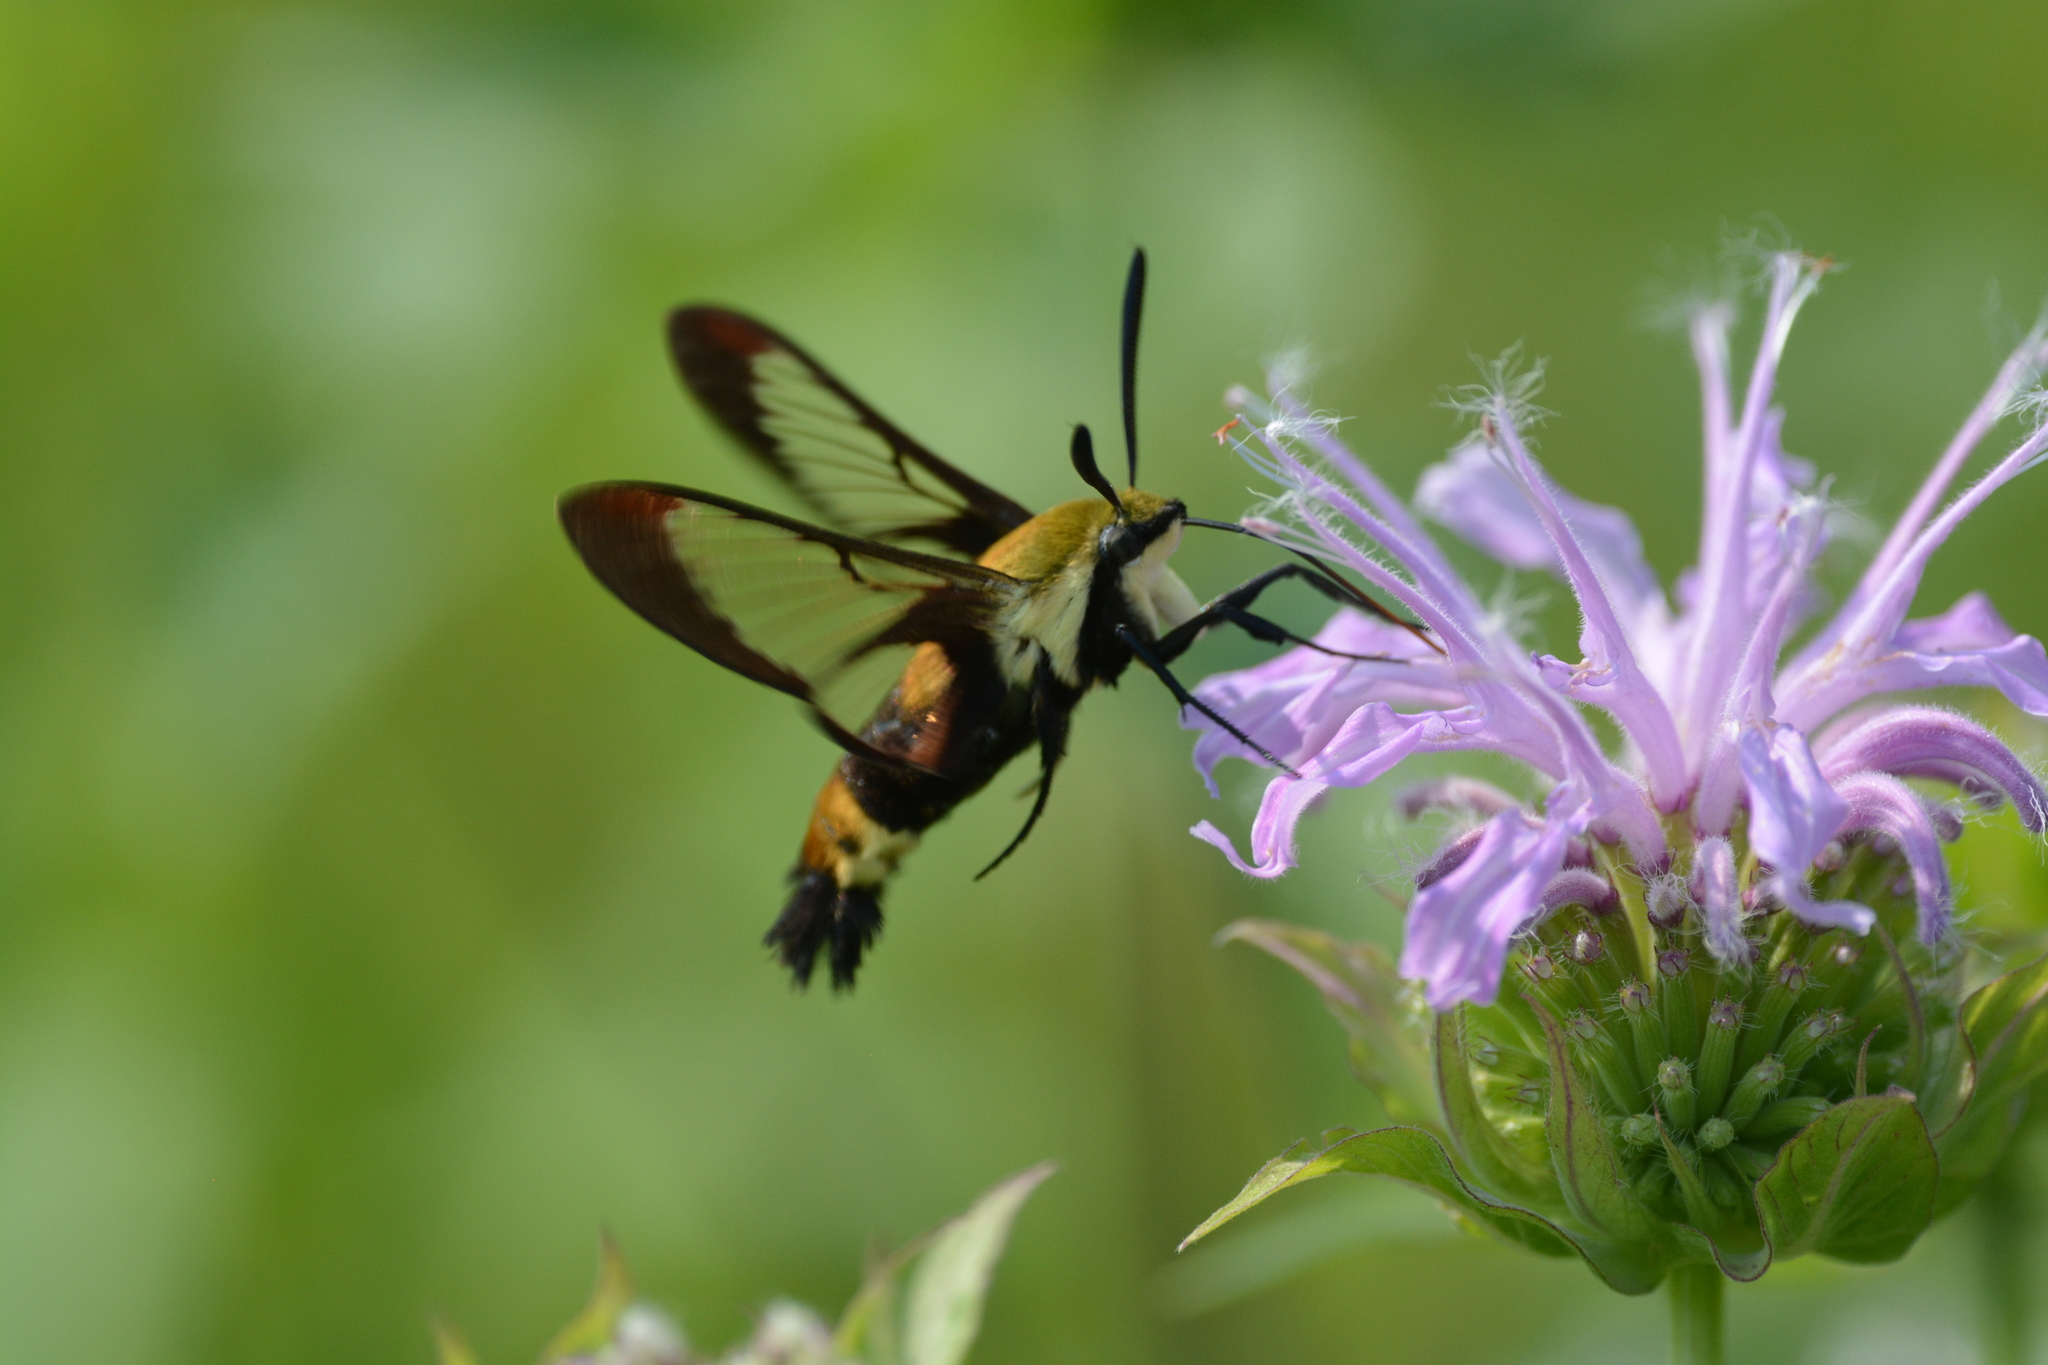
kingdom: Animalia
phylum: Arthropoda
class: Insecta
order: Lepidoptera
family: Sphingidae
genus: Hemaris
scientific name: Hemaris diffinis
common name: Bumblebee moth
